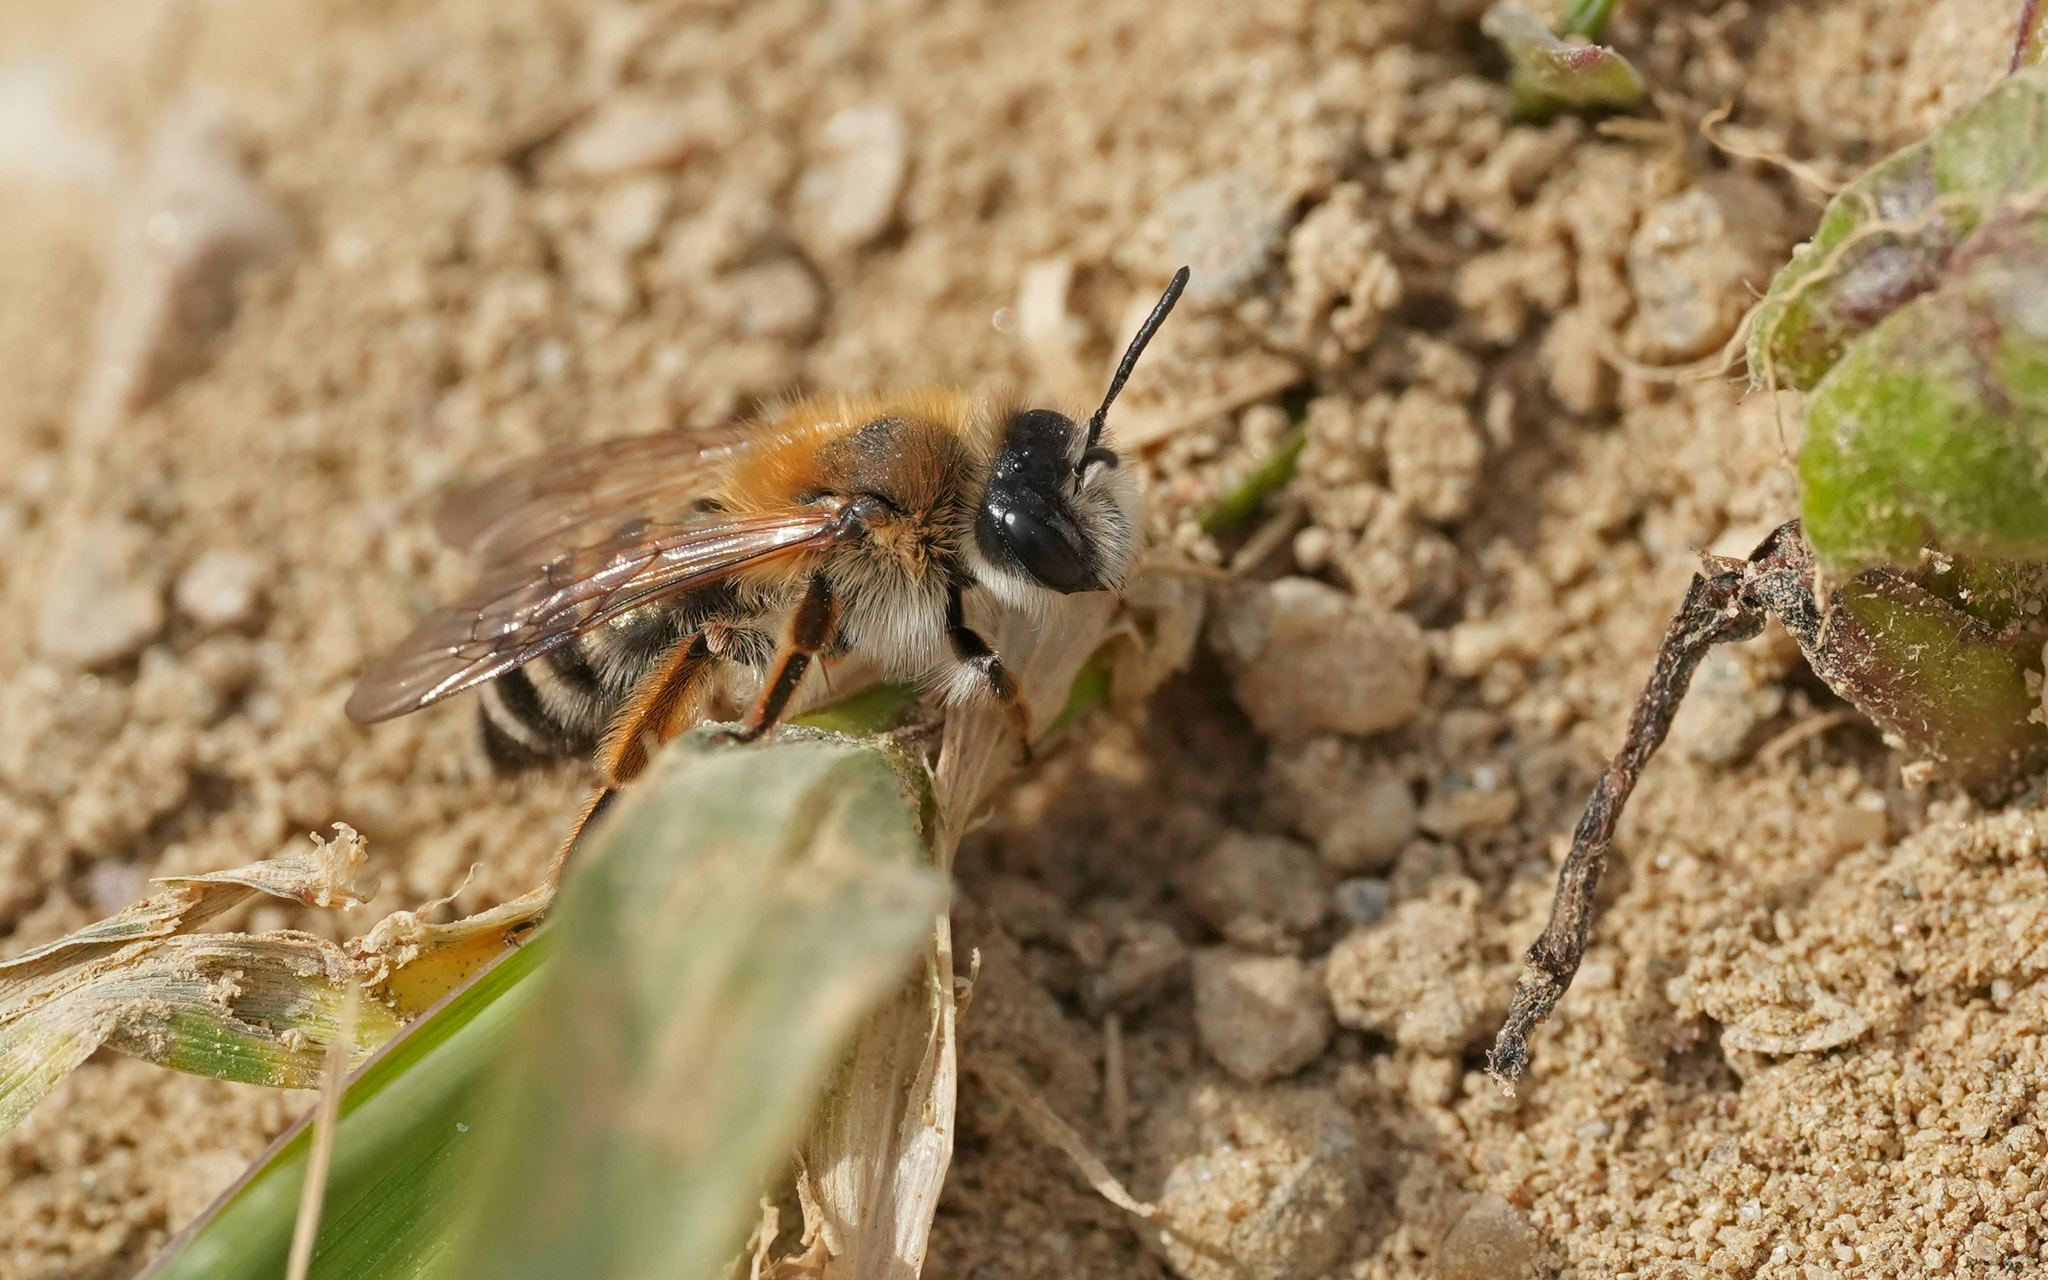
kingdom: Animalia
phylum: Arthropoda
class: Insecta
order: Hymenoptera
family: Andrenidae
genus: Andrena
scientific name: Andrena gravida
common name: White-bellied mining bee
